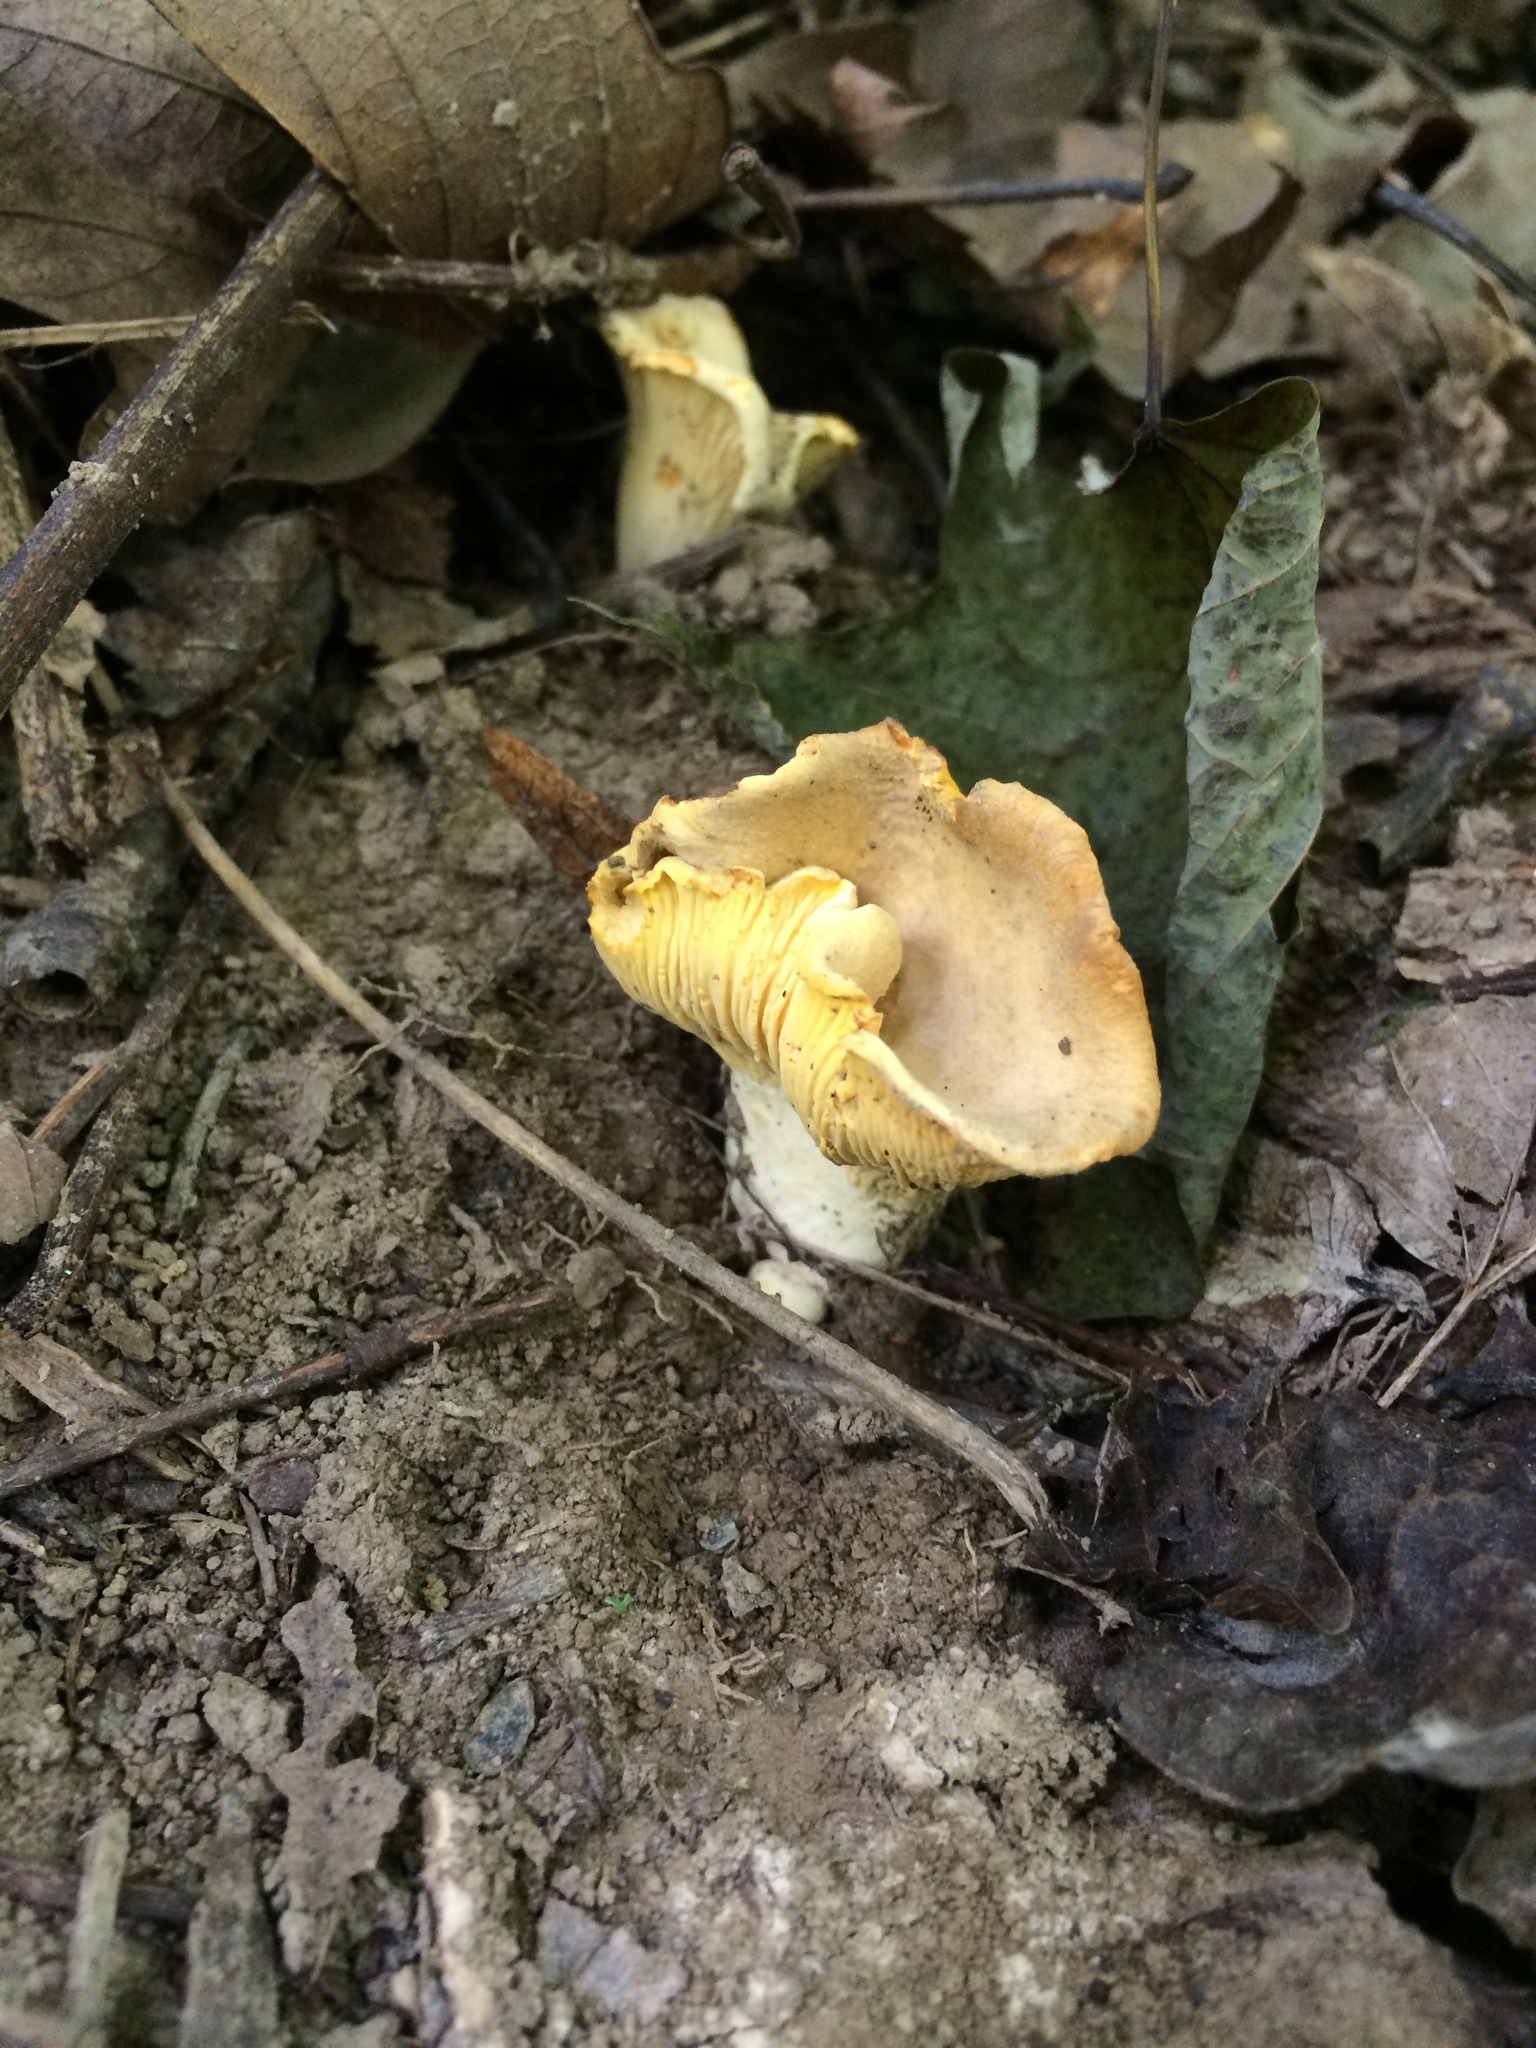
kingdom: Fungi
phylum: Basidiomycota
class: Agaricomycetes
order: Cantharellales
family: Hydnaceae
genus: Cantharellus
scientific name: Cantharellus chicagoensis
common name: Chicago chanterelle
